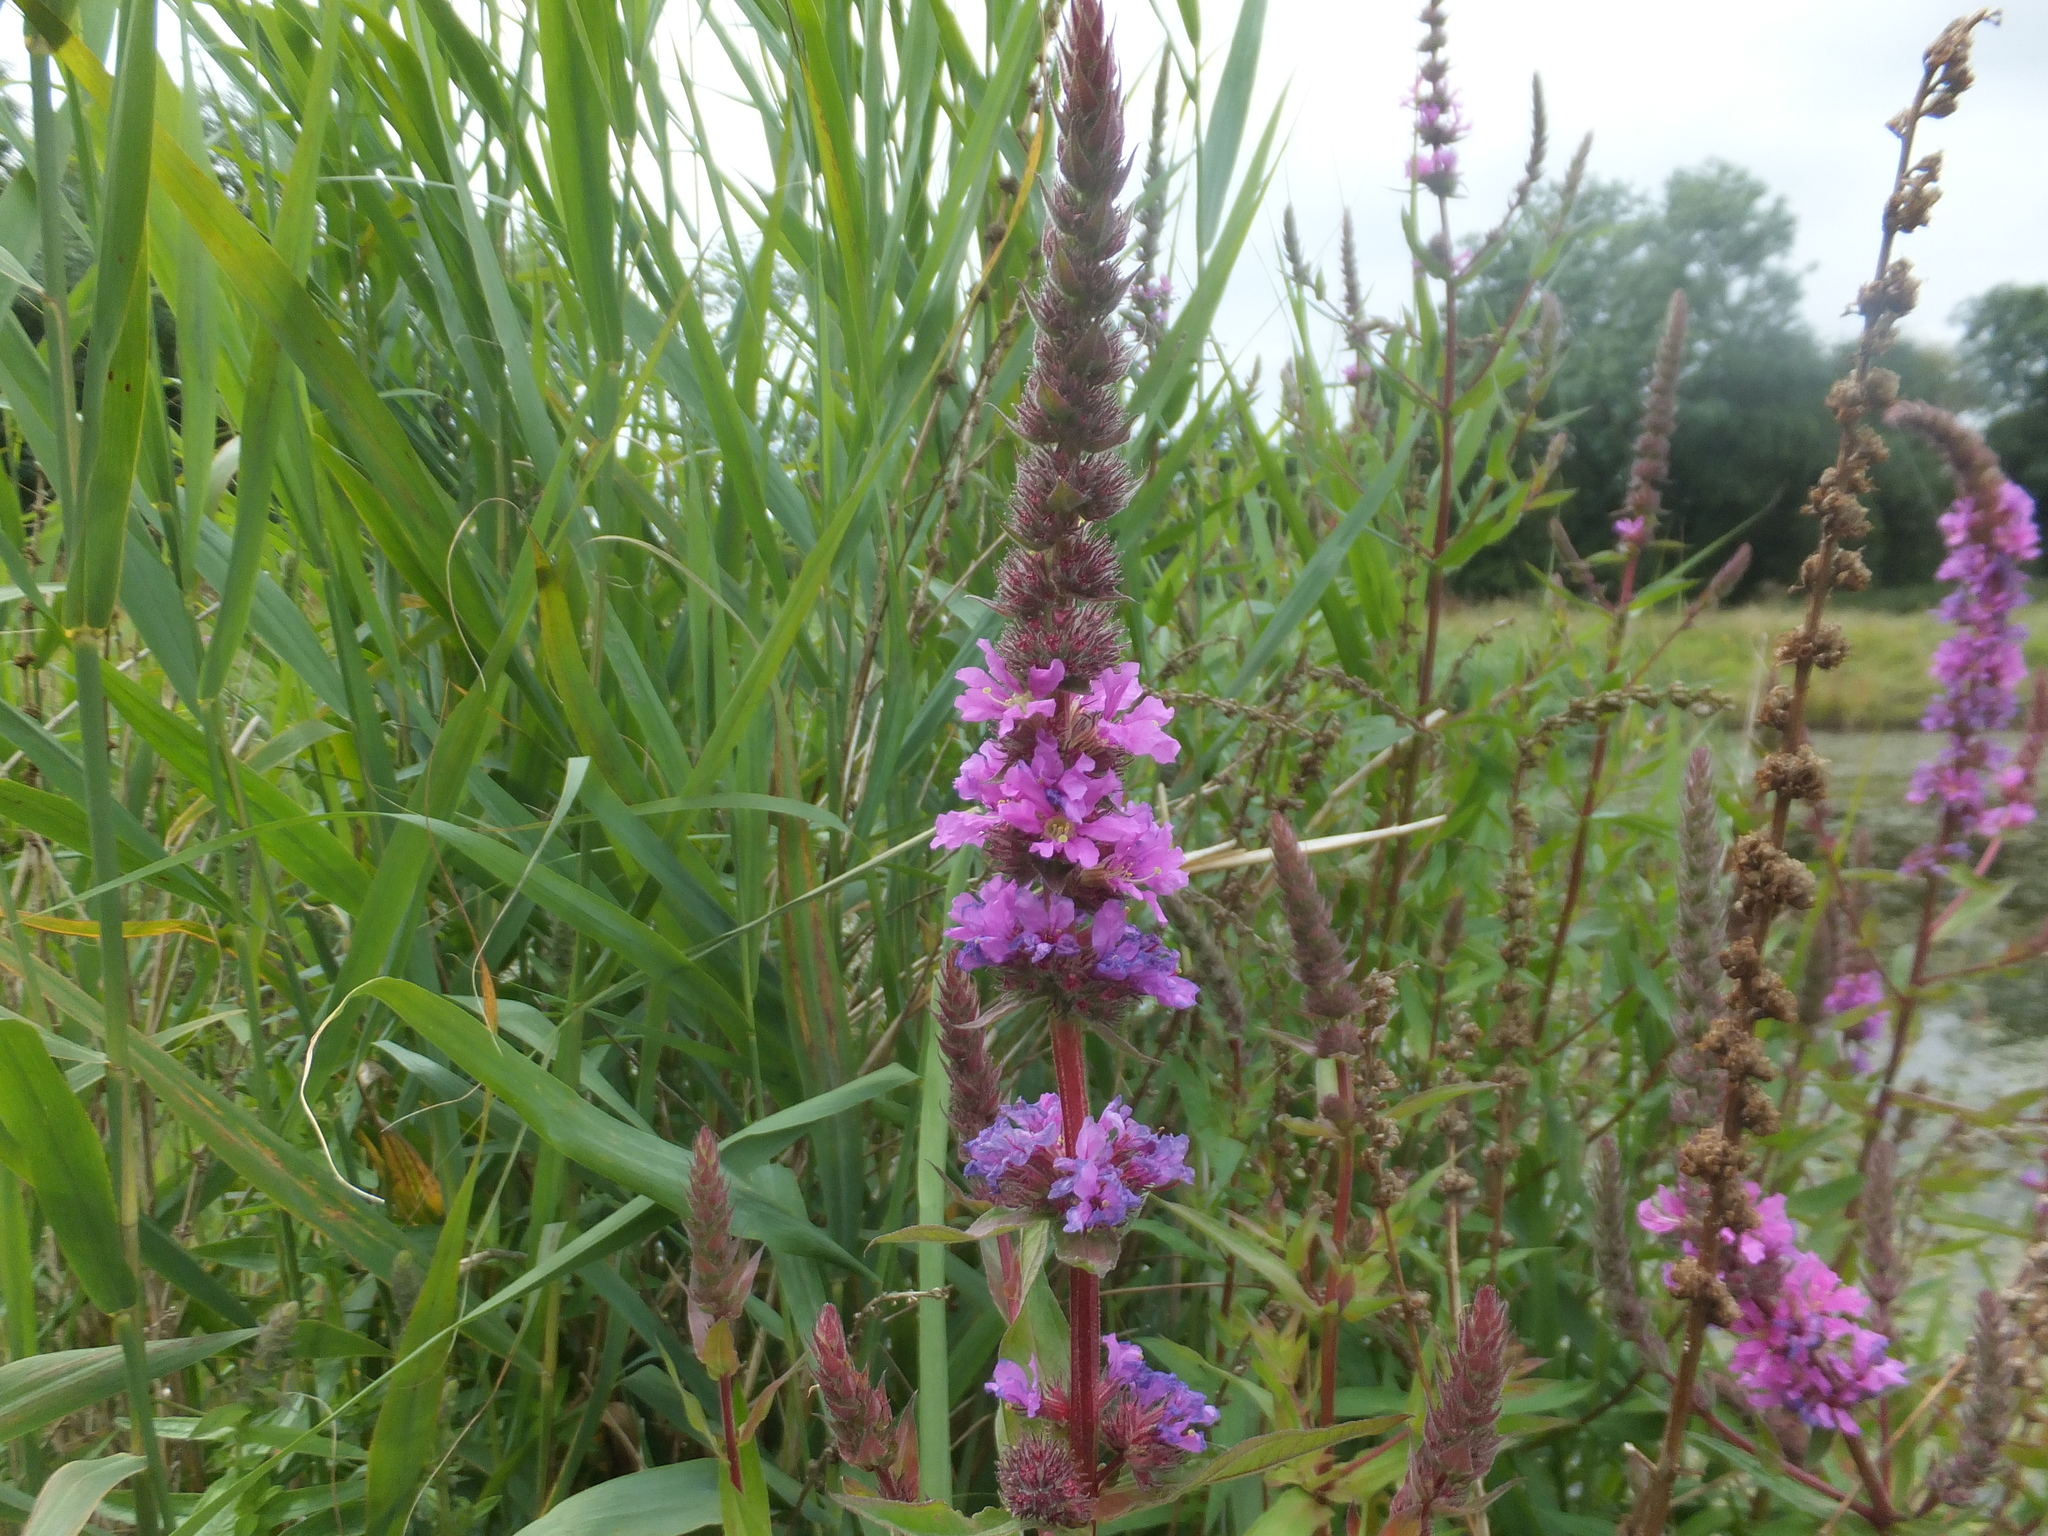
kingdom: Plantae
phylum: Tracheophyta
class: Magnoliopsida
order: Myrtales
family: Lythraceae
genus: Lythrum
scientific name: Lythrum salicaria
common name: Purple loosestrife
